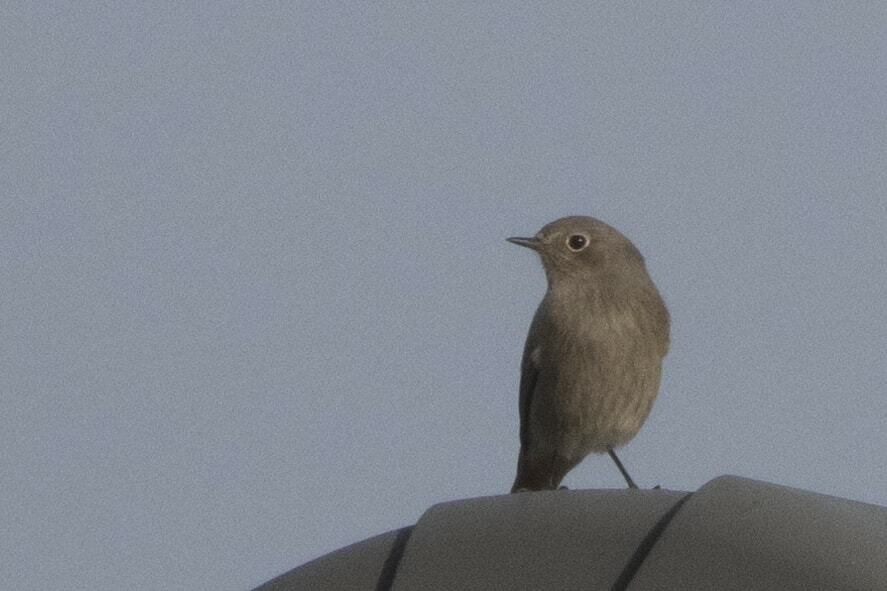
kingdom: Animalia
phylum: Chordata
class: Aves
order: Passeriformes
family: Muscicapidae
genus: Phoenicurus
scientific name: Phoenicurus ochruros
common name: Black redstart
